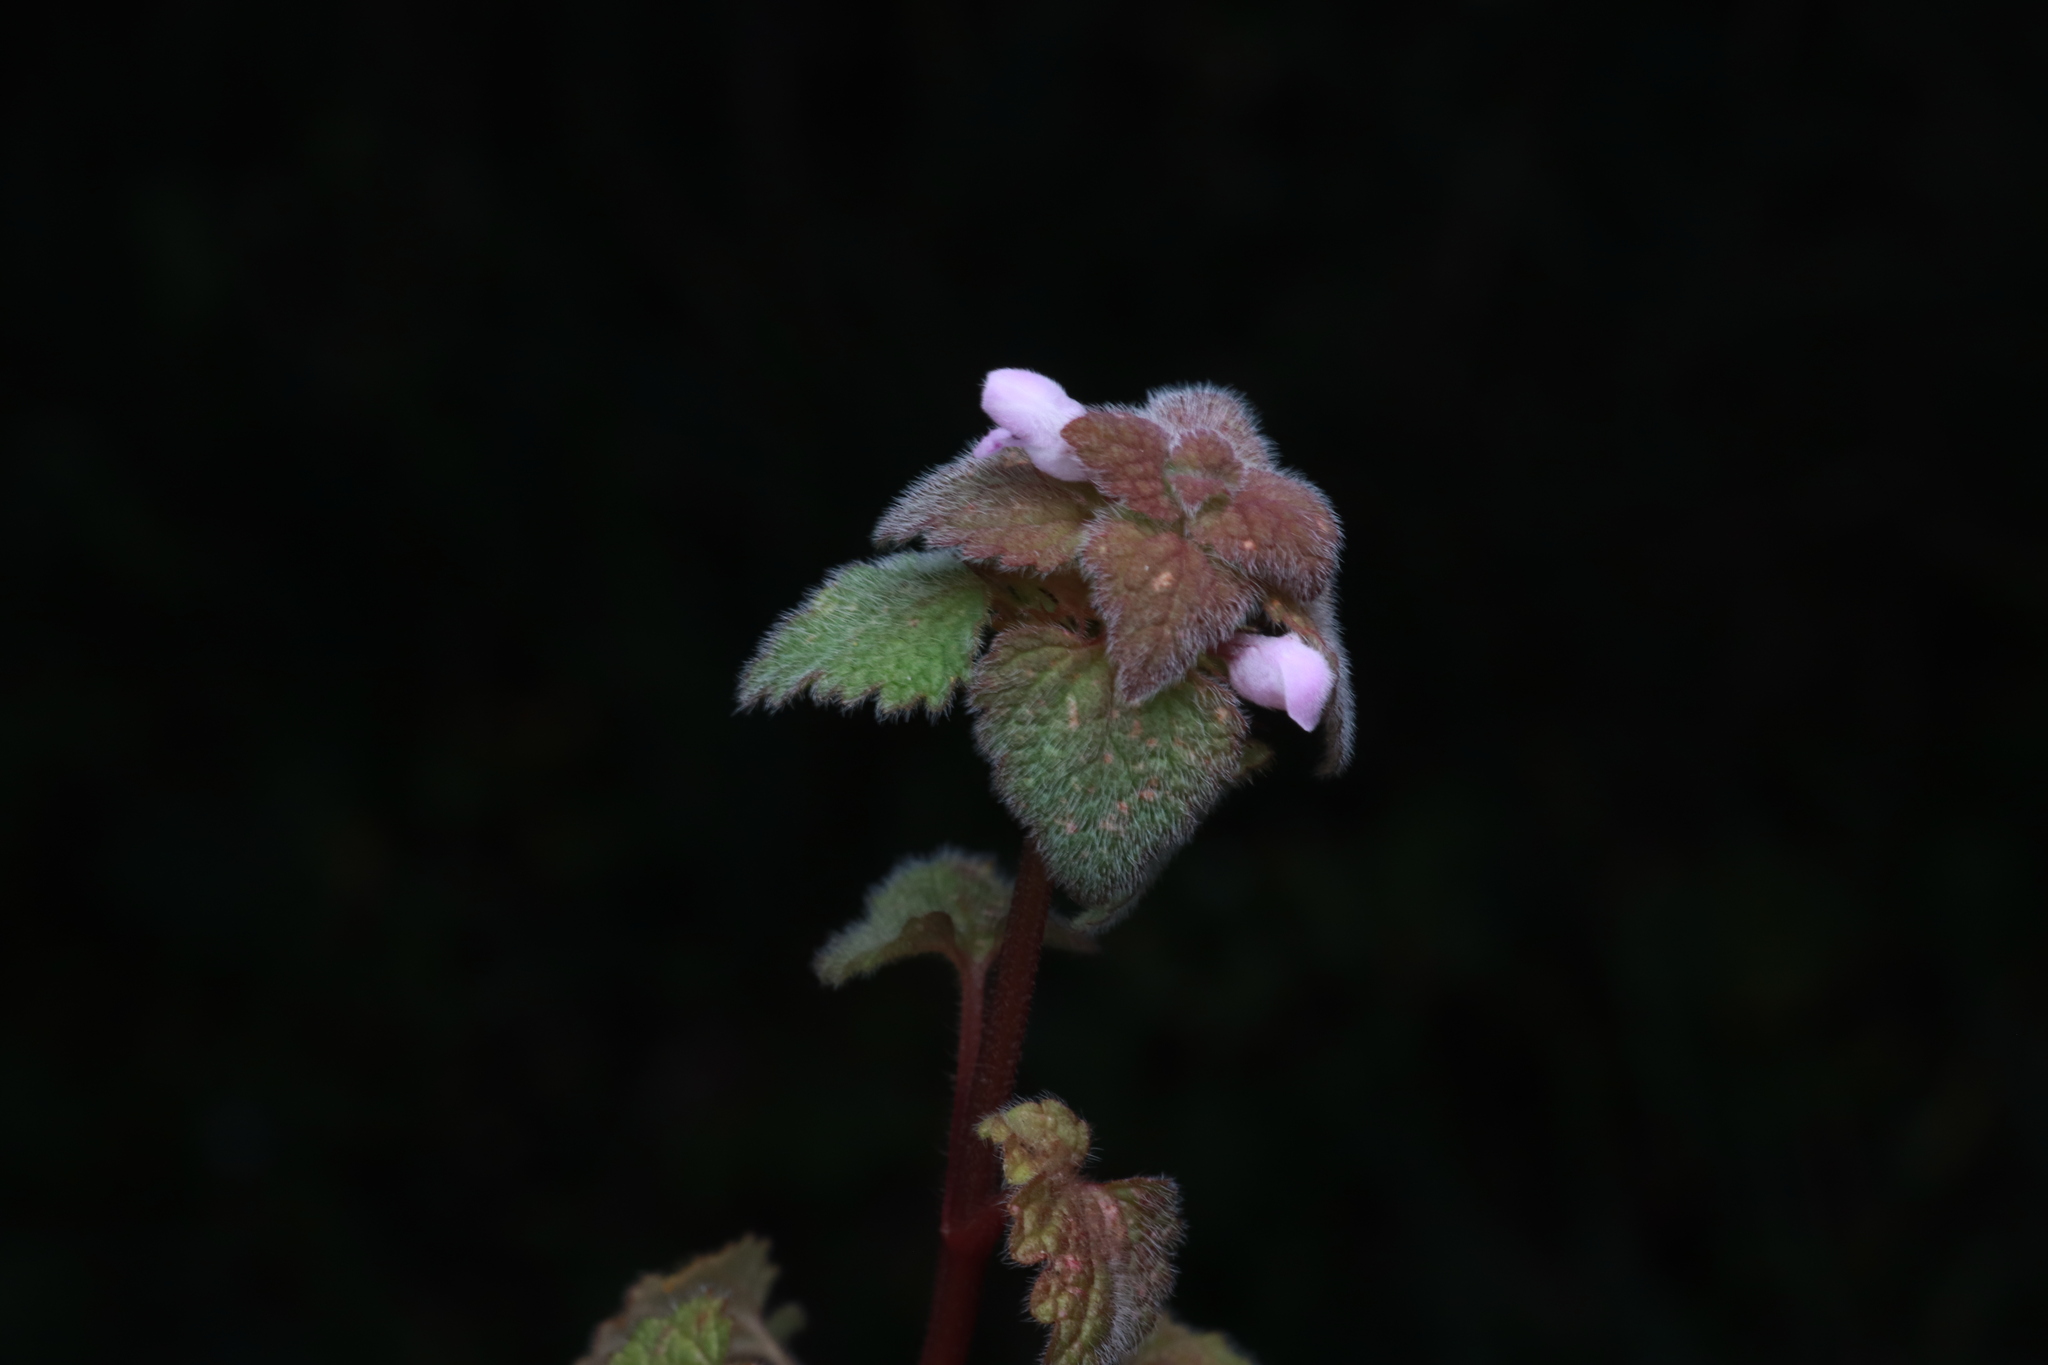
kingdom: Plantae
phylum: Tracheophyta
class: Magnoliopsida
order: Lamiales
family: Lamiaceae
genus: Lamium
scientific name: Lamium purpureum
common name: Red dead-nettle
